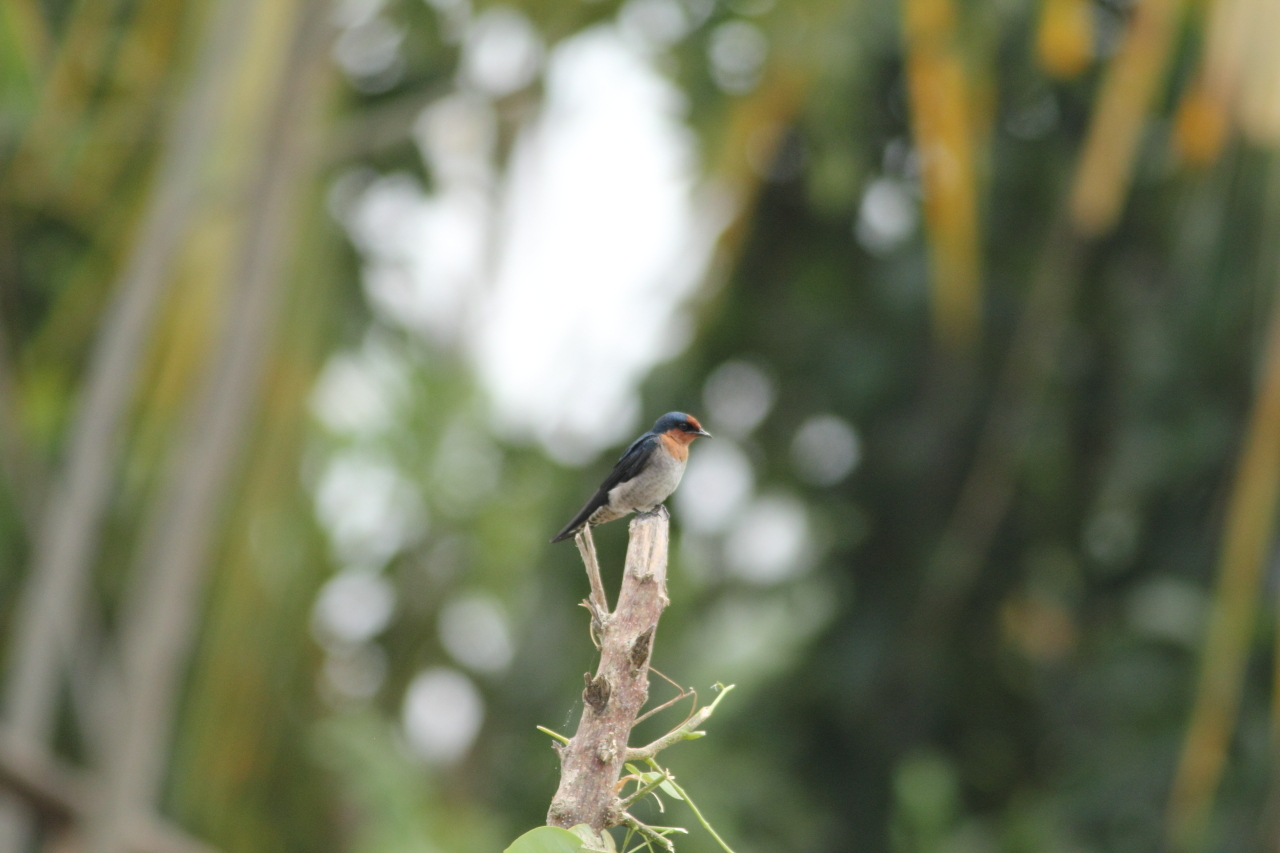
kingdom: Animalia
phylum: Chordata
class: Aves
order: Passeriformes
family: Hirundinidae
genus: Hirundo
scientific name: Hirundo tahitica
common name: Pacific swallow
